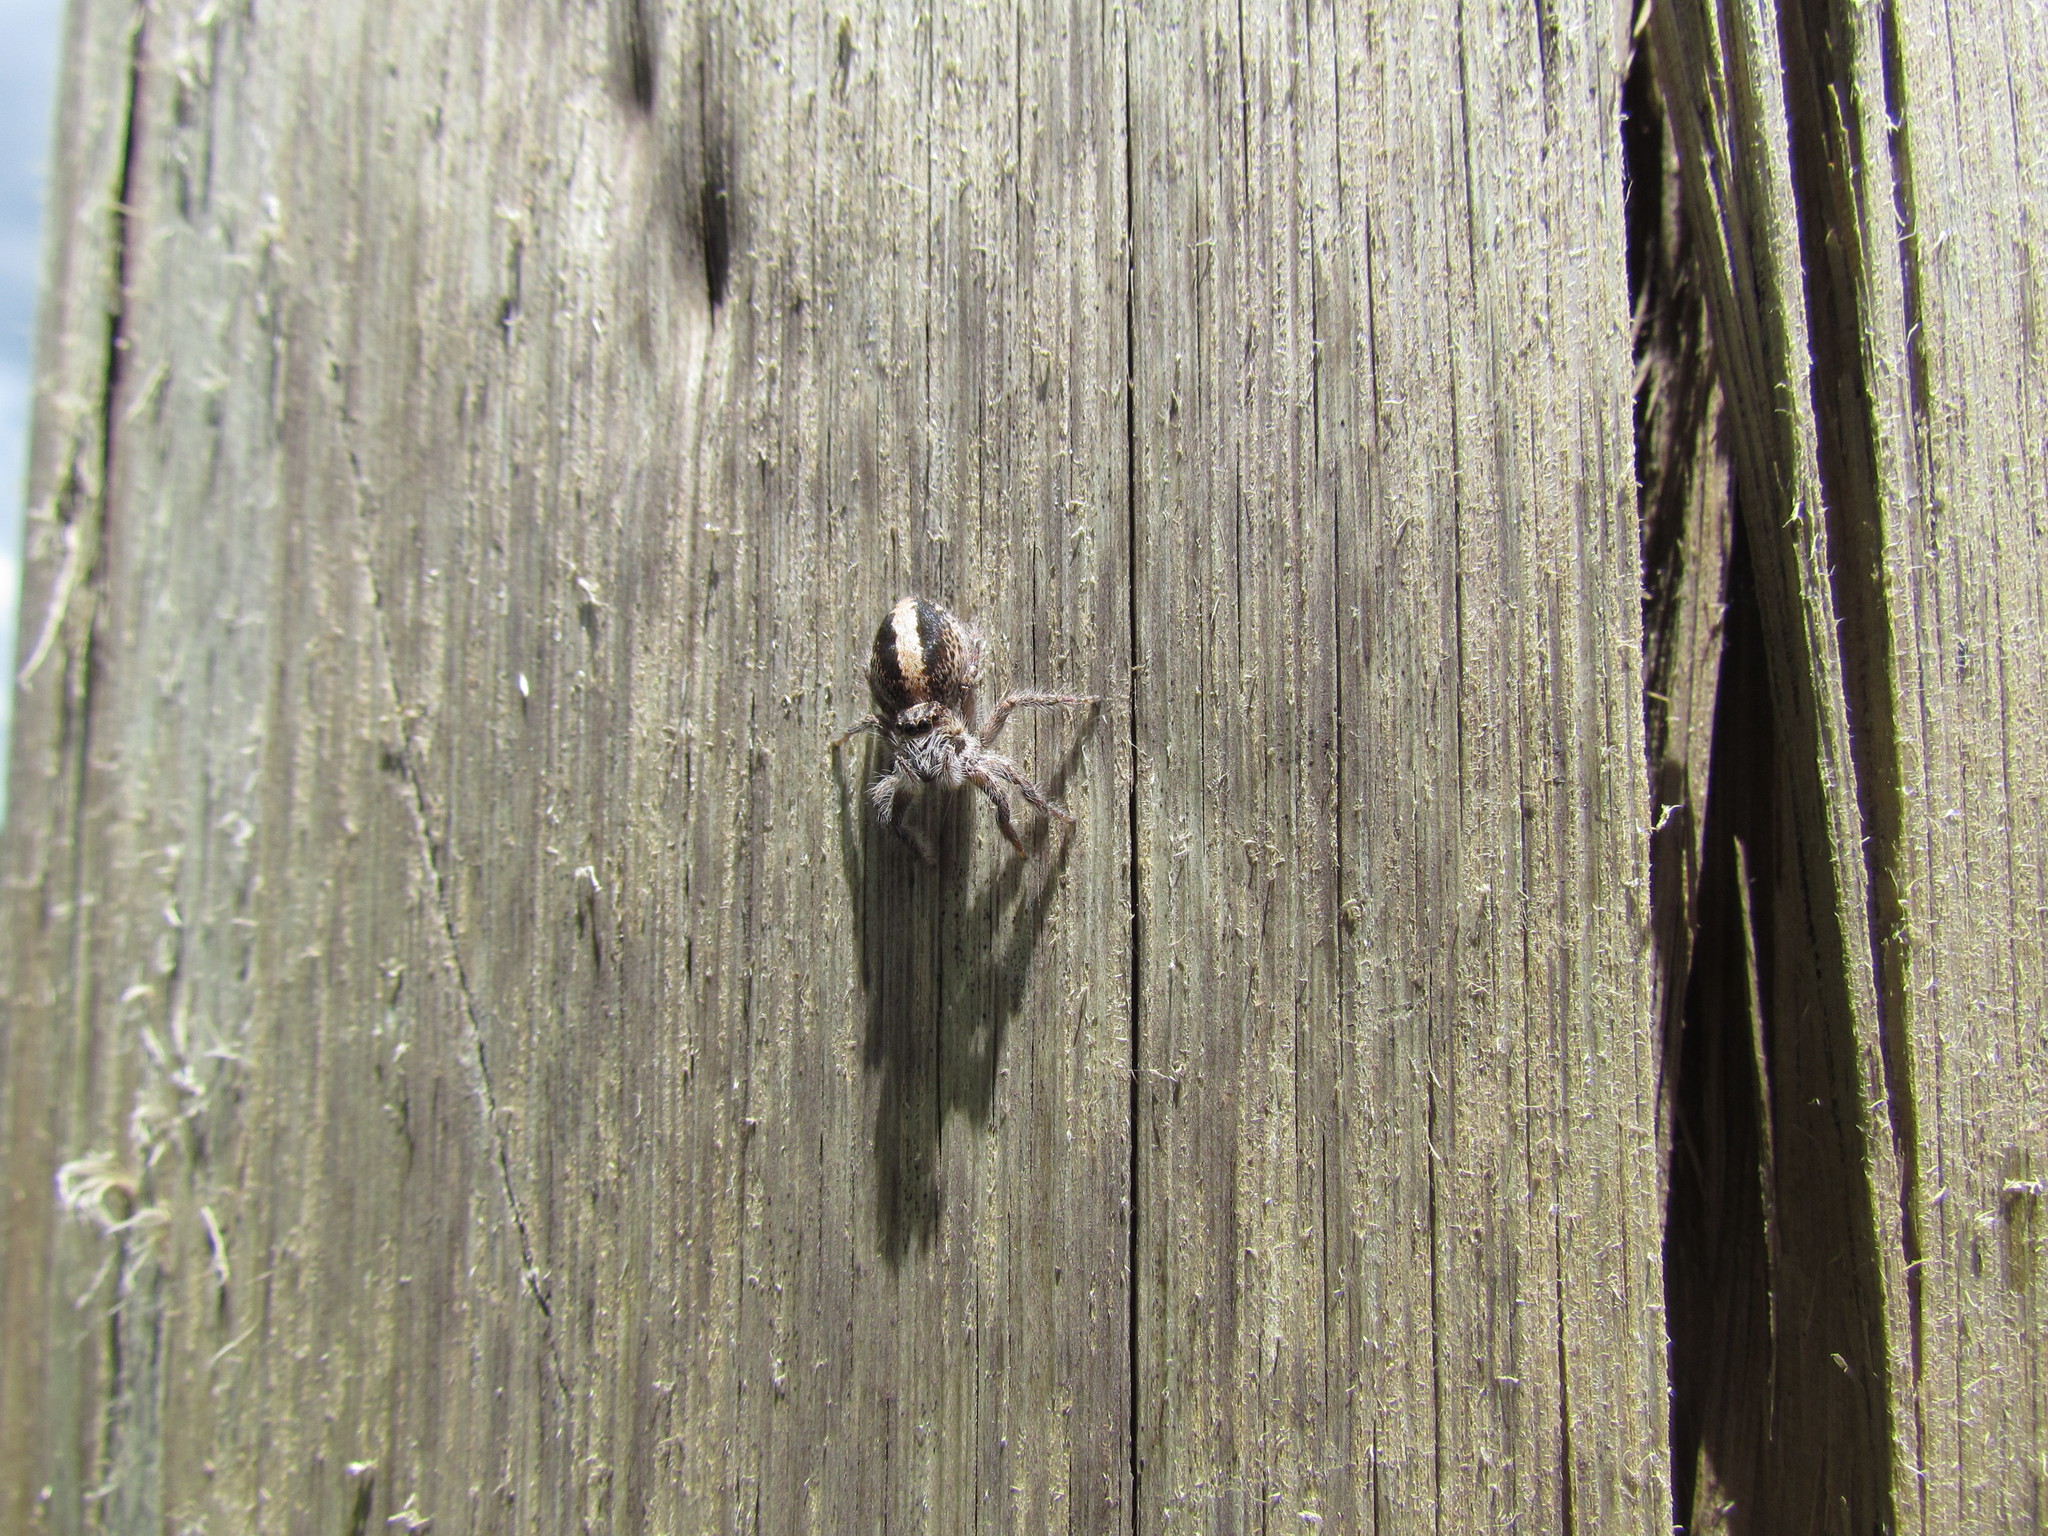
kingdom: Animalia
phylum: Arthropoda
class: Arachnida
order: Araneae
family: Salticidae
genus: Megafreya
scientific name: Megafreya sutrix
